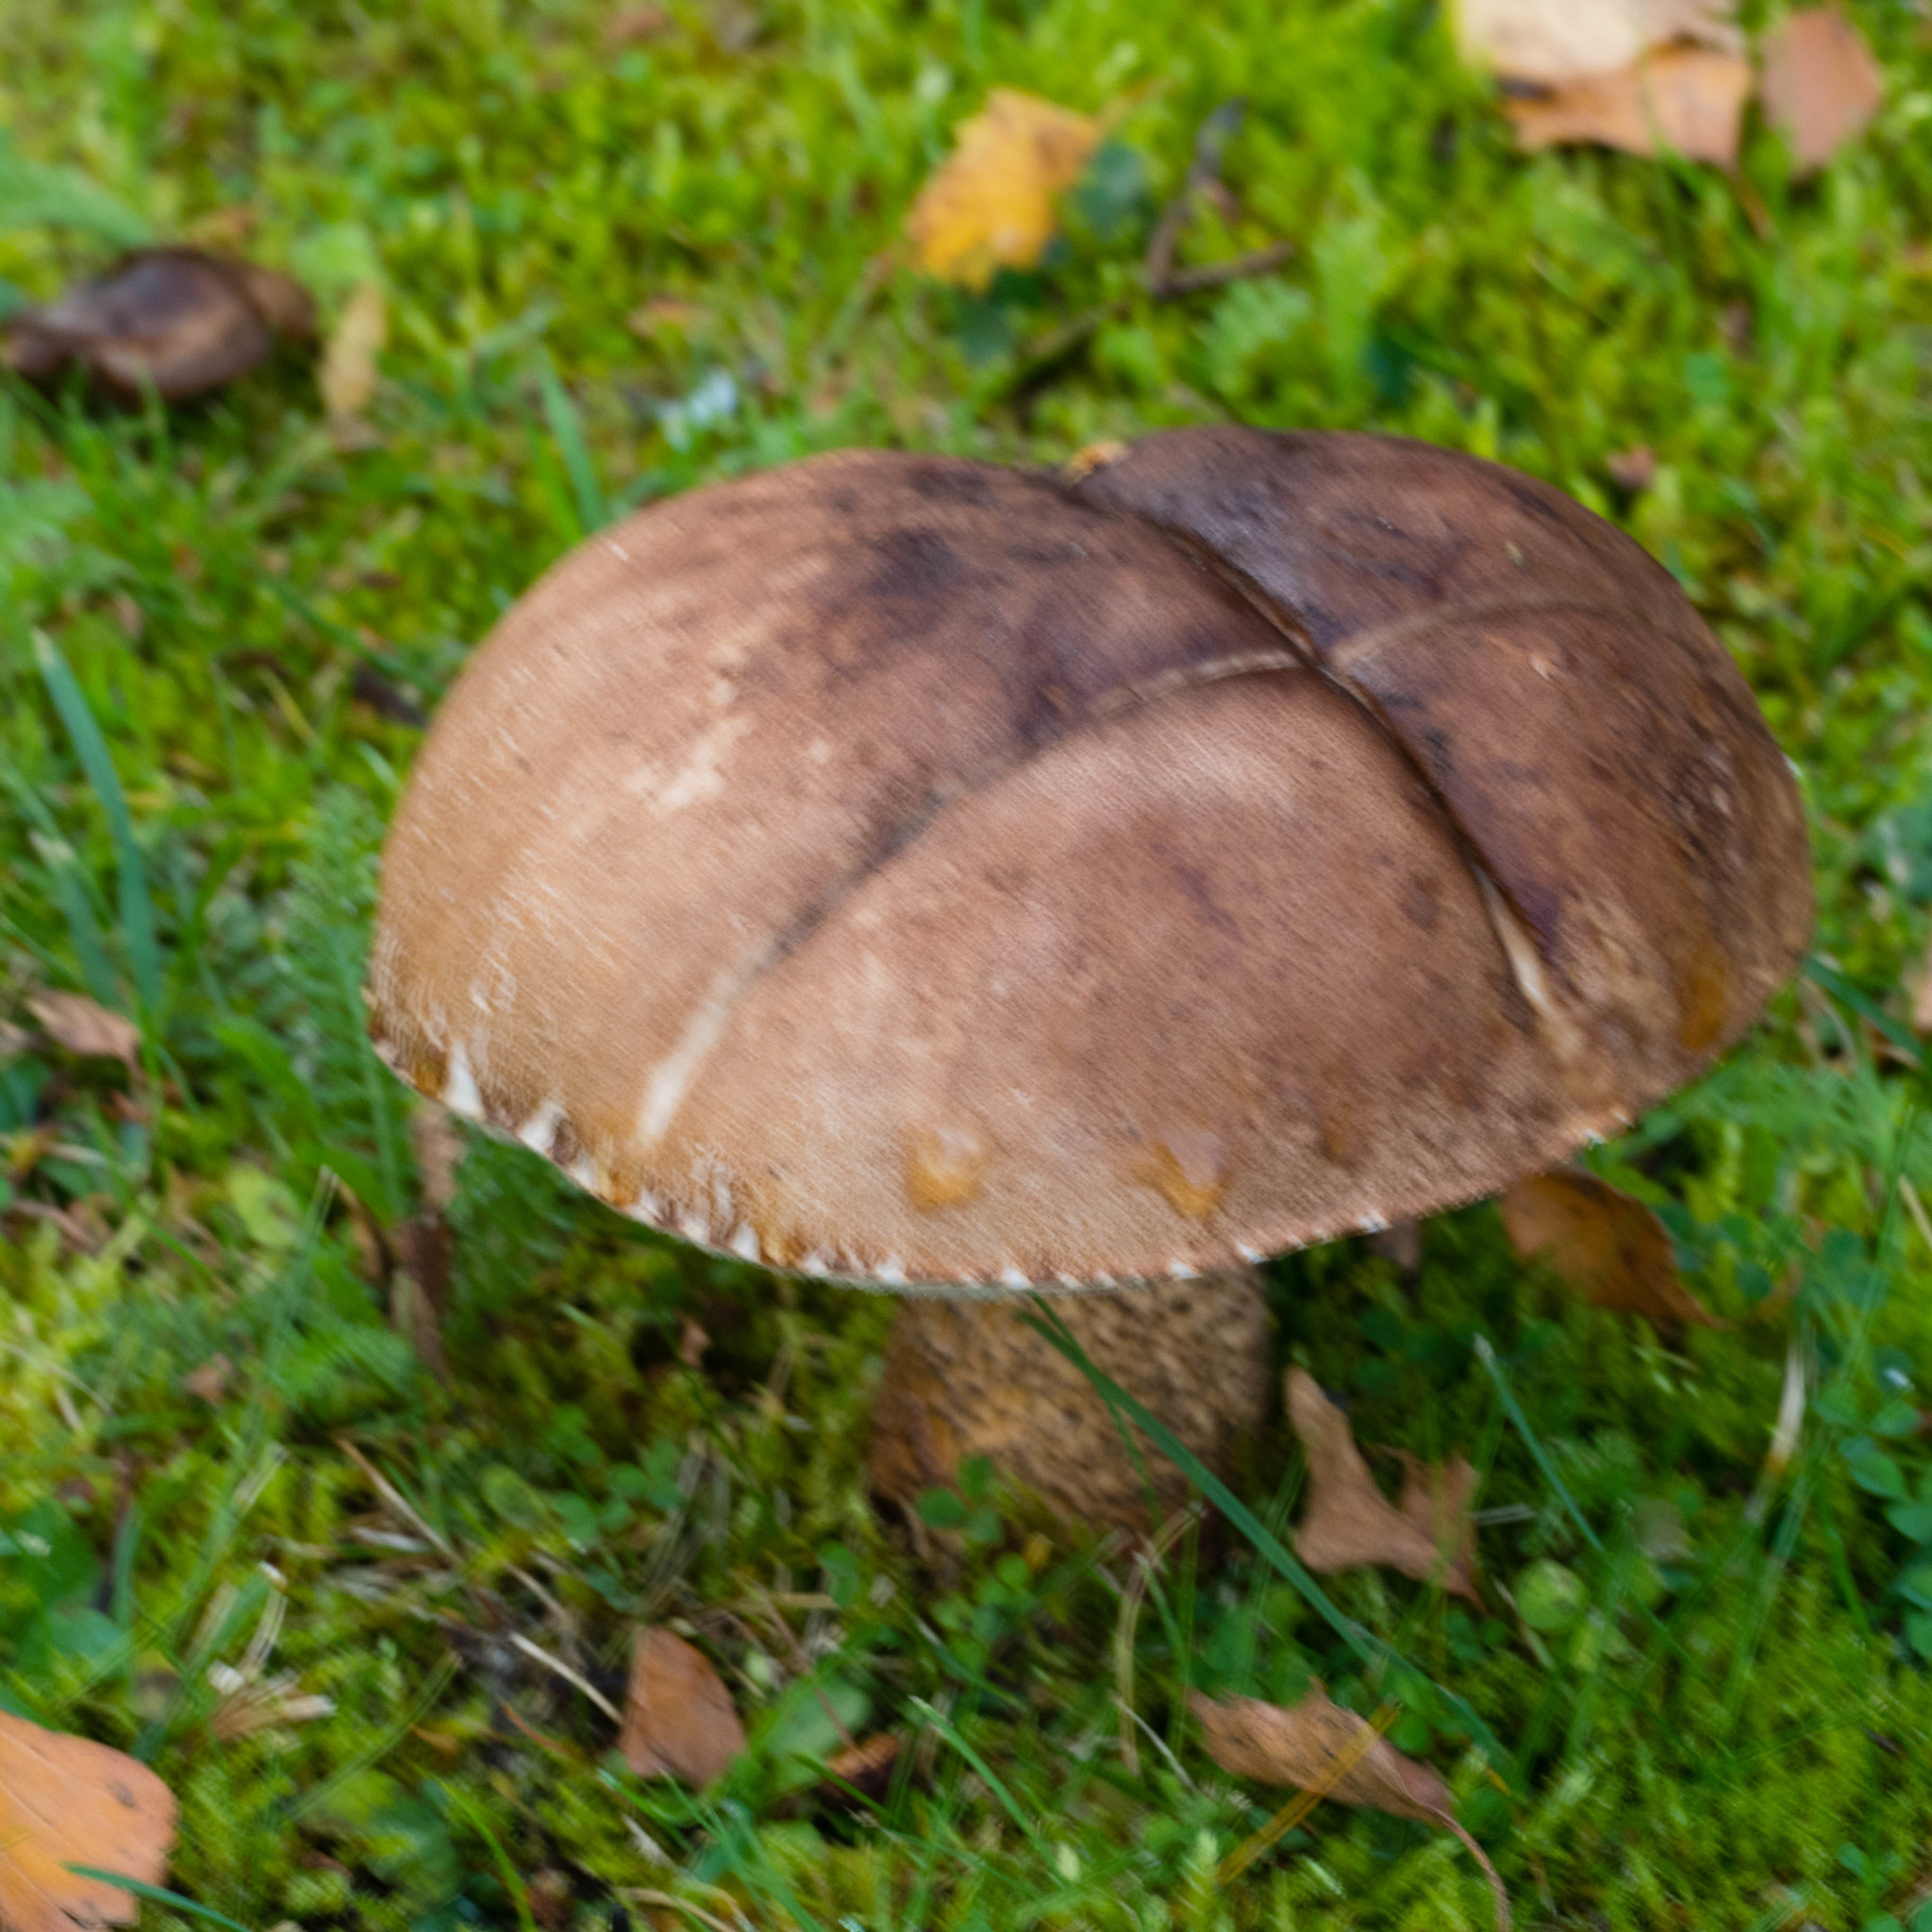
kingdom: Fungi
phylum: Basidiomycota
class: Agaricomycetes
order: Boletales
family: Boletaceae
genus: Leccinum
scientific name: Leccinum scabrum
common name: Blushing bolete
